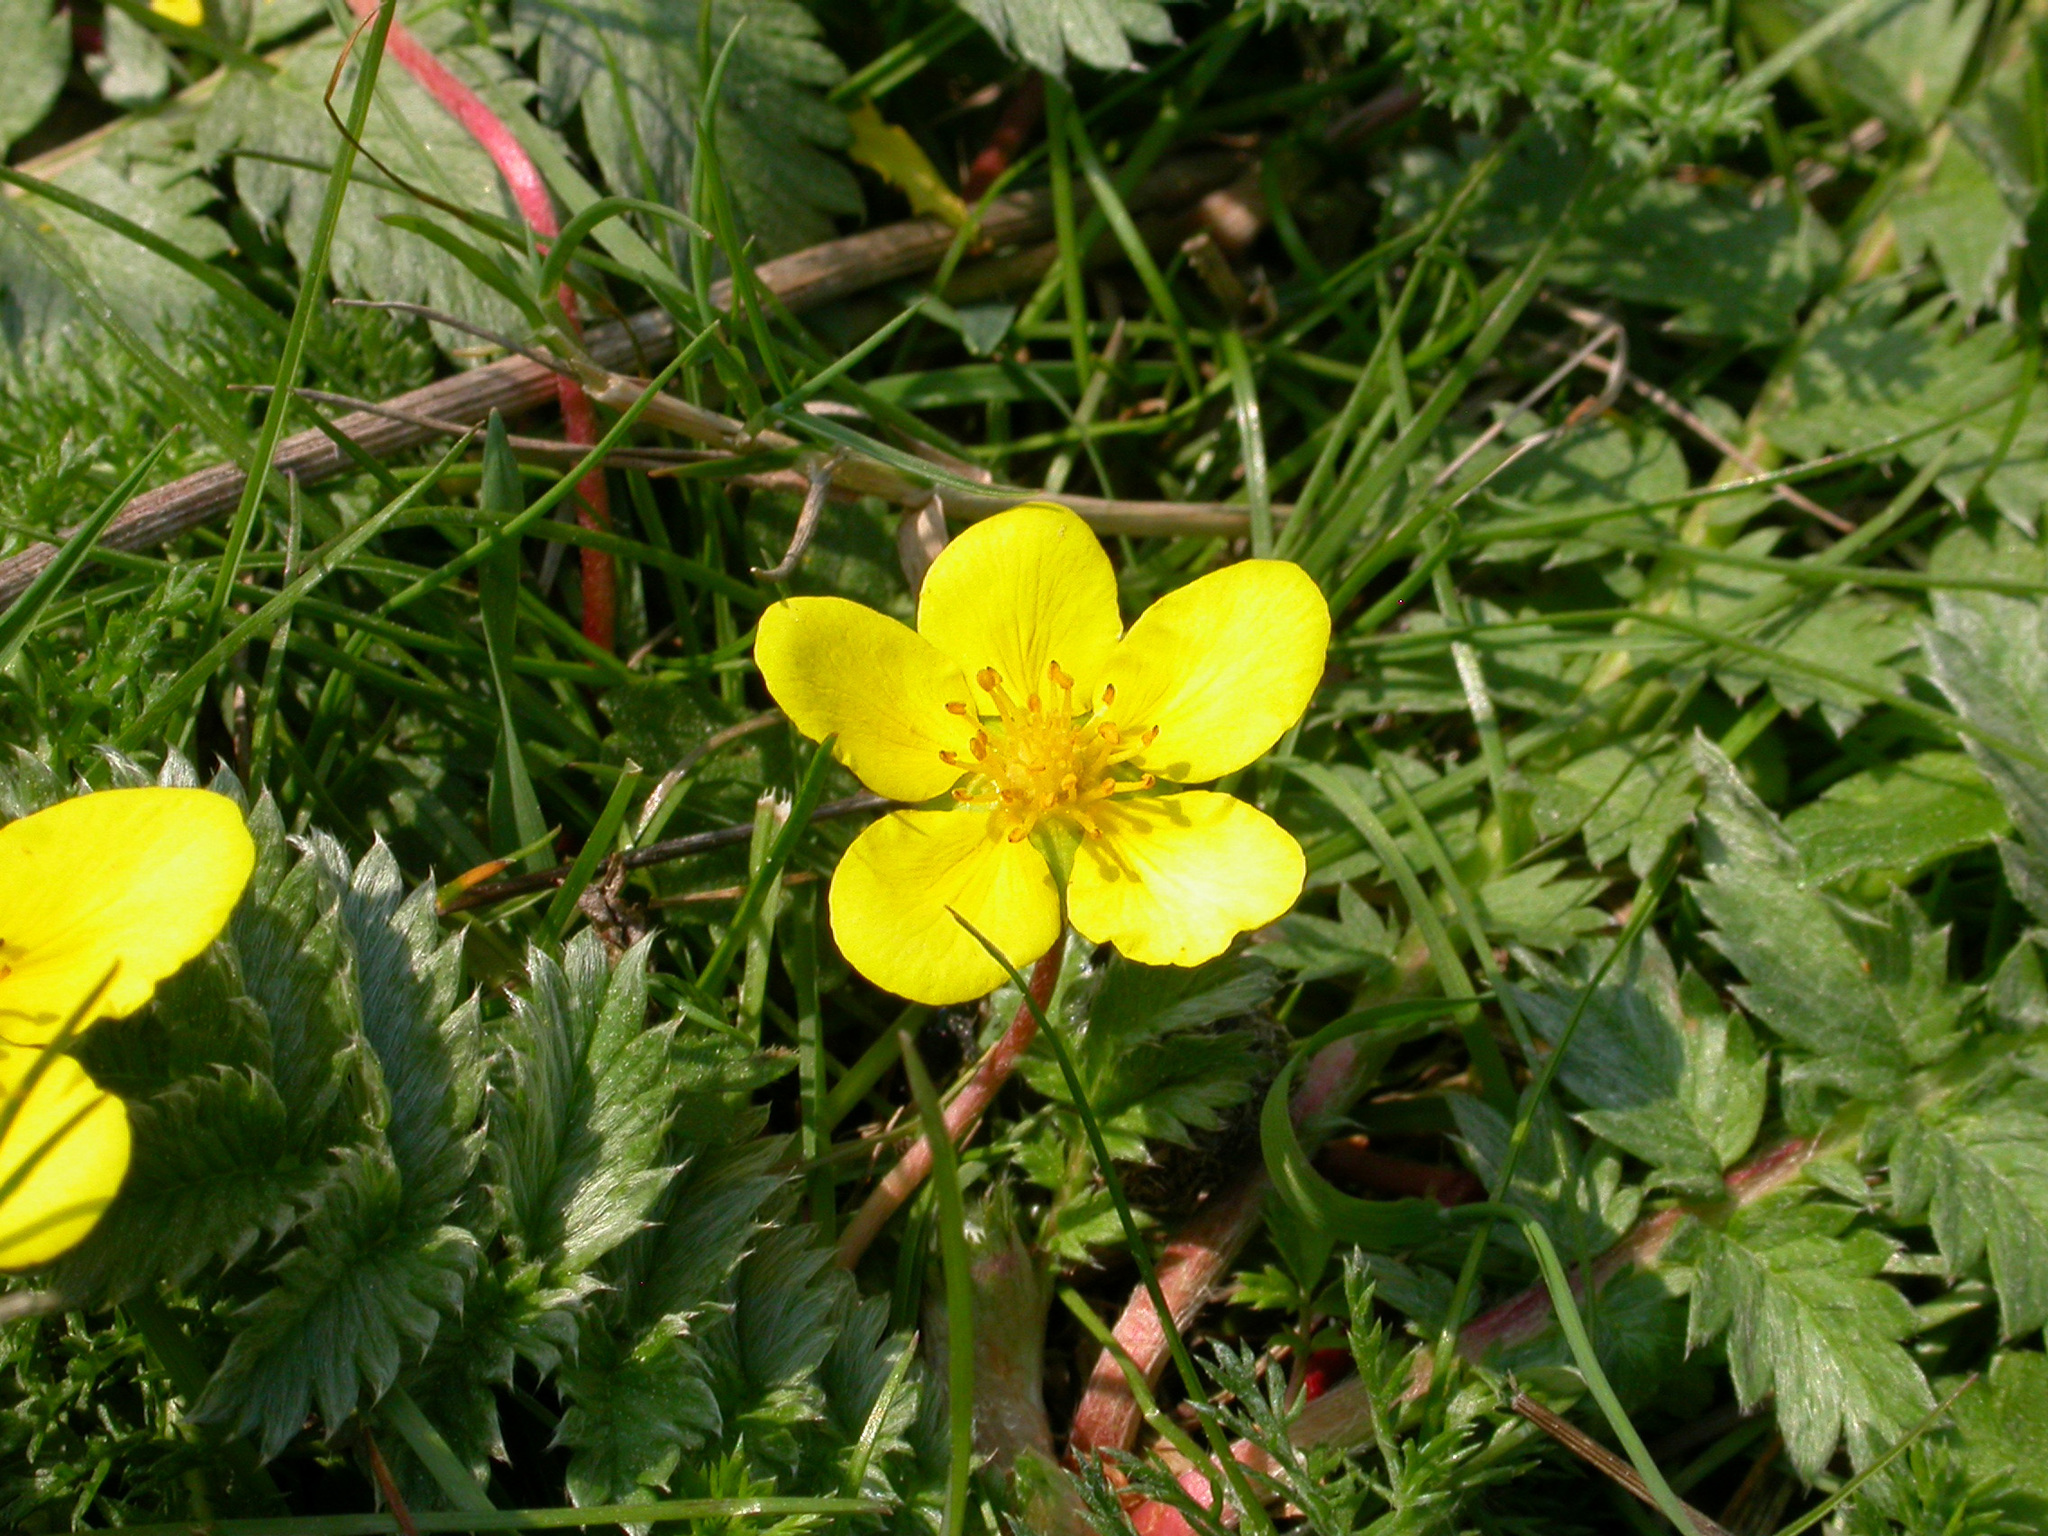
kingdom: Plantae
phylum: Tracheophyta
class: Magnoliopsida
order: Rosales
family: Rosaceae
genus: Argentina
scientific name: Argentina anserina
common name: Common silverweed
